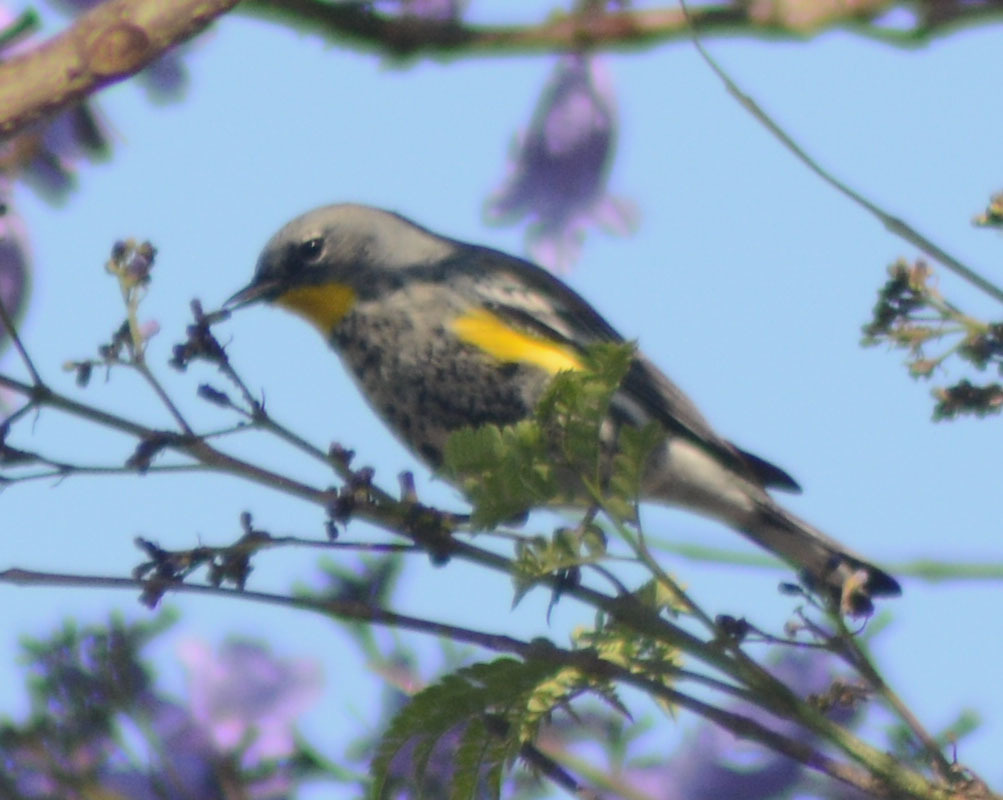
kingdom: Animalia
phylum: Chordata
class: Aves
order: Passeriformes
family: Parulidae
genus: Setophaga
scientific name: Setophaga auduboni
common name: Audubon's warbler
